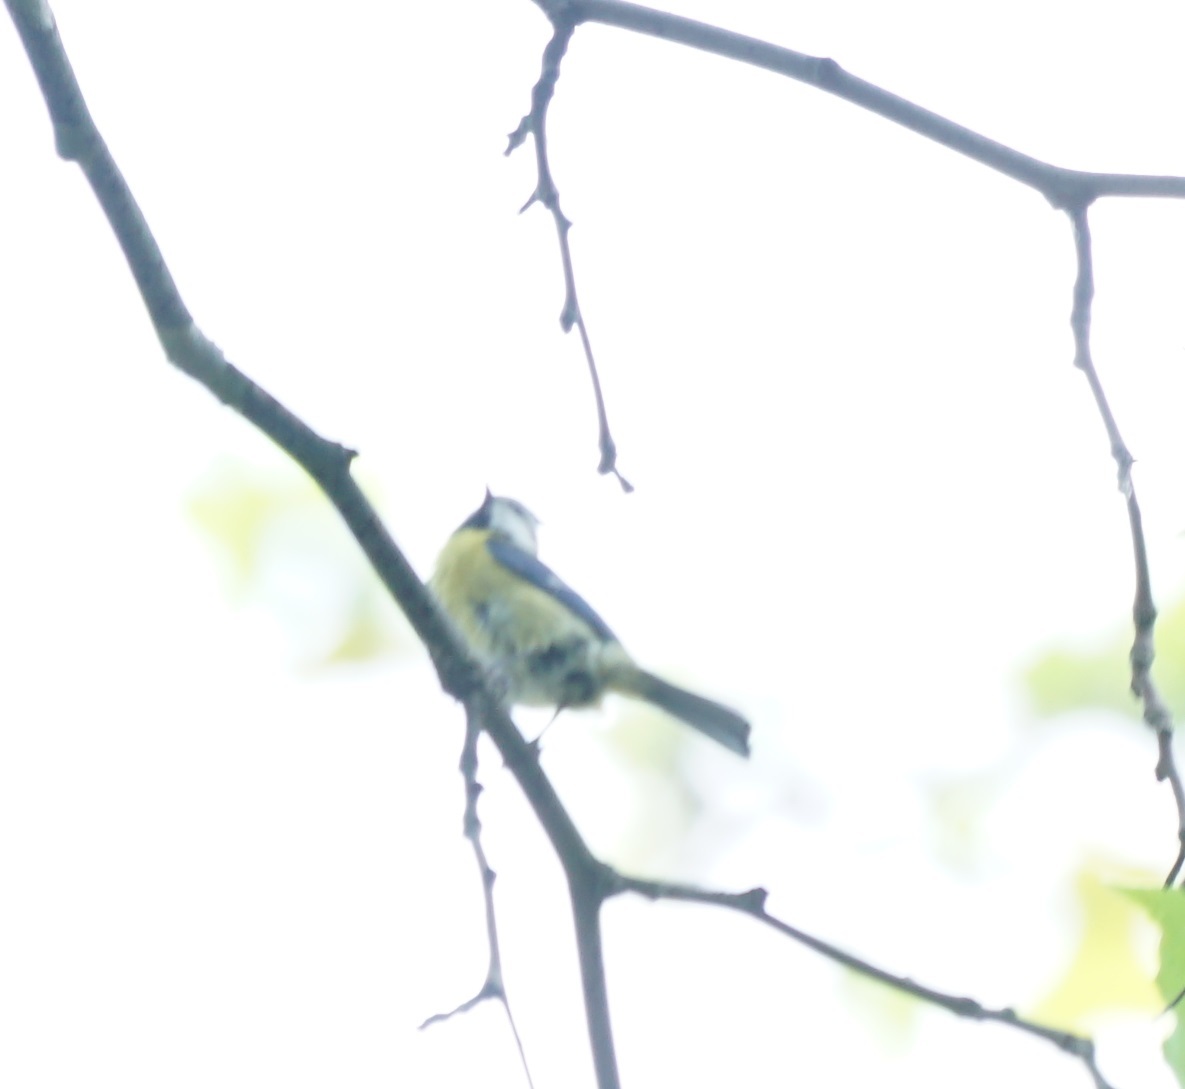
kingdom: Animalia
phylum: Chordata
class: Aves
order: Passeriformes
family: Paridae
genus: Cyanistes
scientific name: Cyanistes caeruleus
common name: Eurasian blue tit
